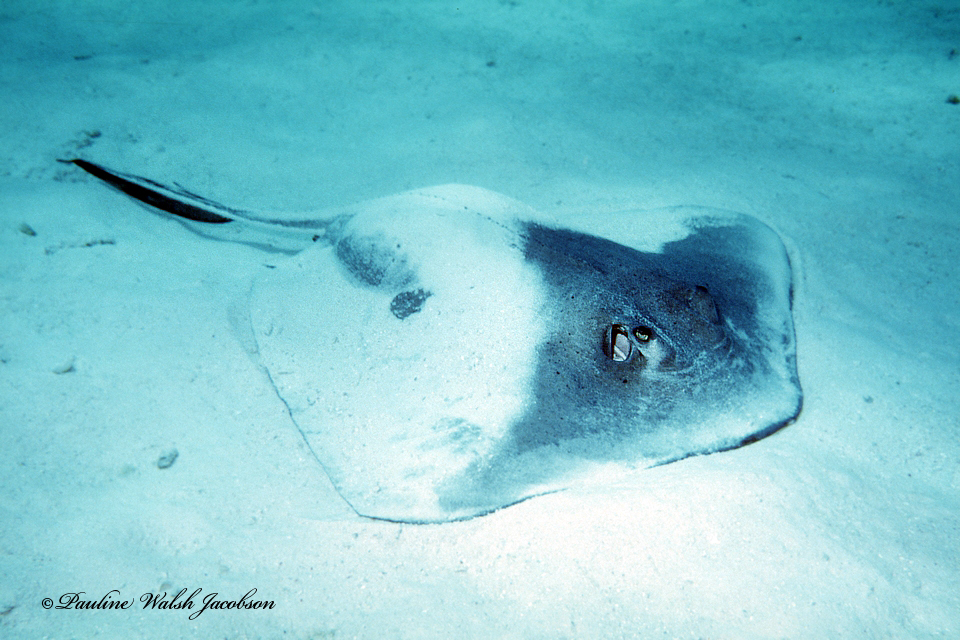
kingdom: Animalia
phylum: Chordata
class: Elasmobranchii
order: Myliobatiformes
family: Dasyatidae
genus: Hypanus
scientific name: Hypanus americanus
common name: Southern stingray
